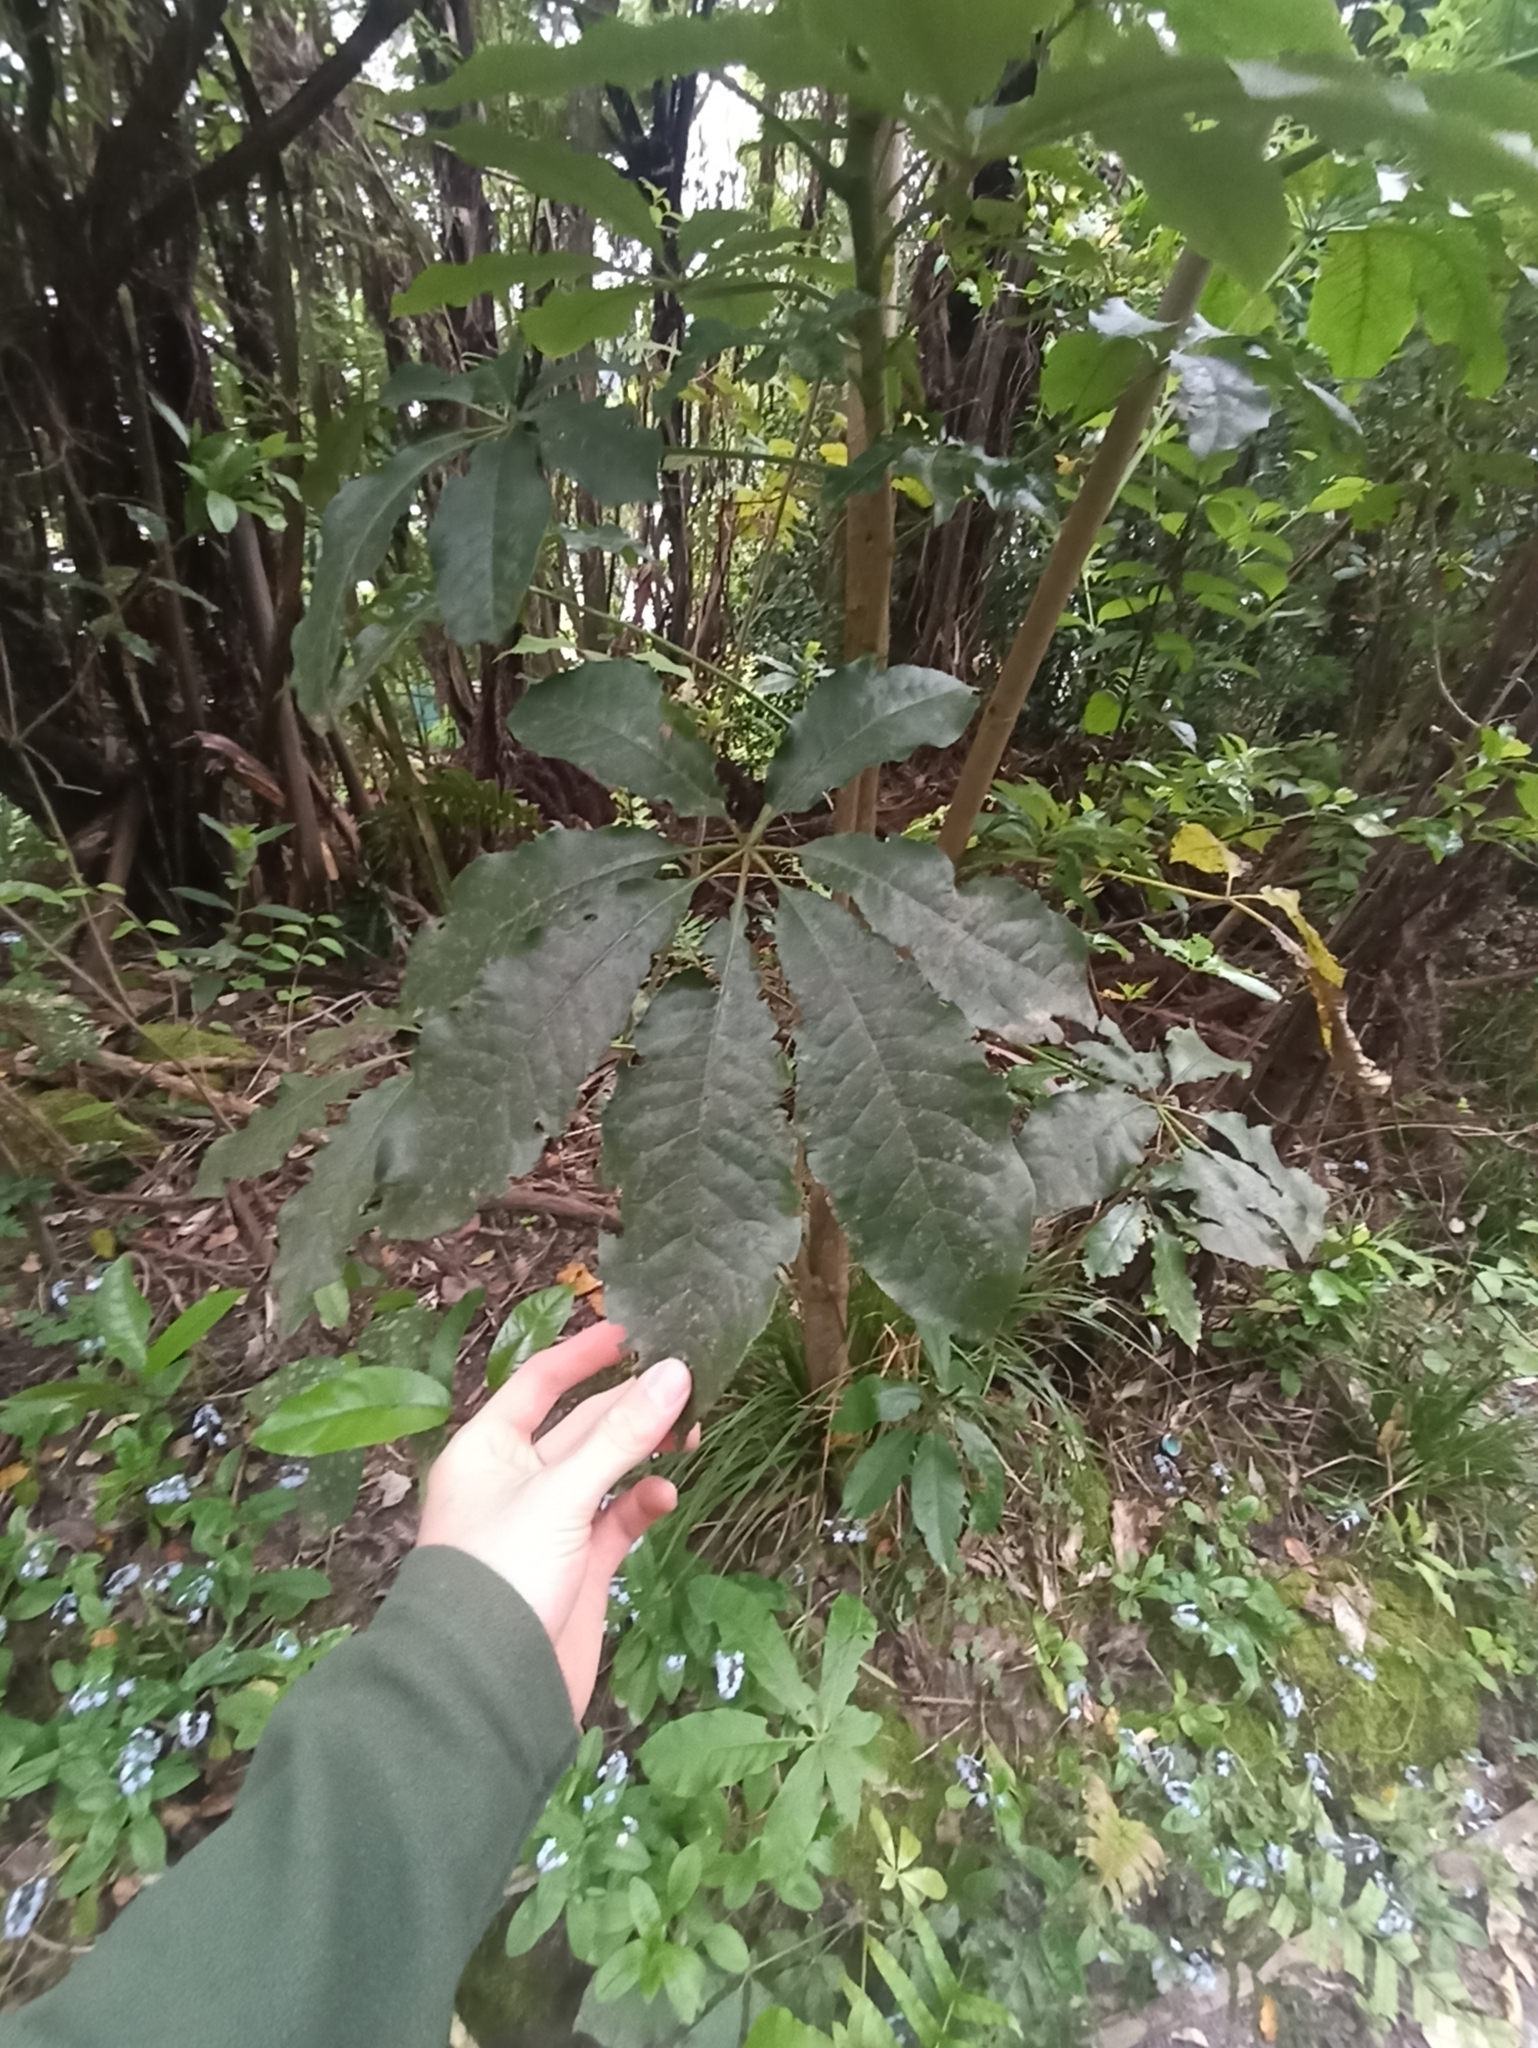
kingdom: Plantae
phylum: Tracheophyta
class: Magnoliopsida
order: Apiales
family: Araliaceae
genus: Schefflera
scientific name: Schefflera digitata
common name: Pate
